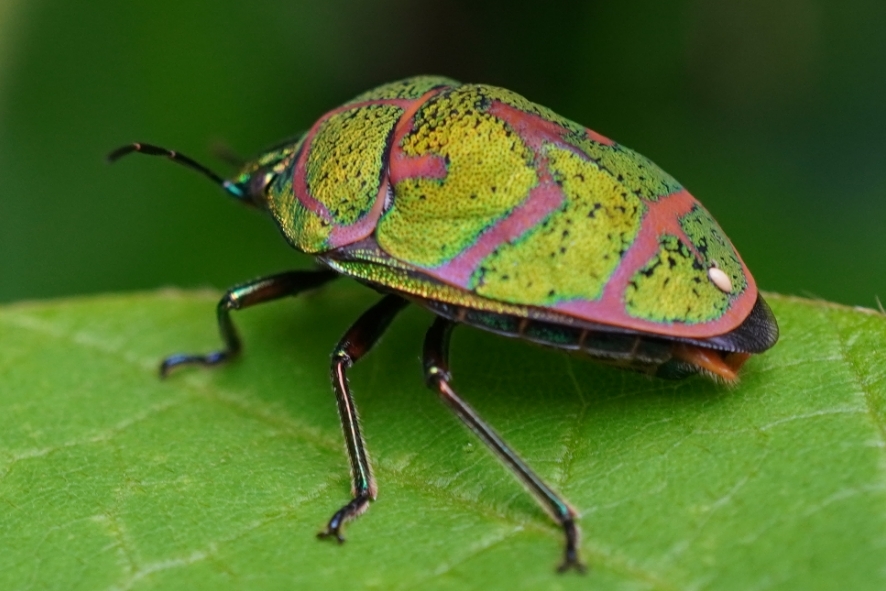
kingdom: Animalia
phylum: Arthropoda
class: Insecta
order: Hemiptera
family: Scutelleridae
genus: Poecilocoris
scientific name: Poecilocoris lewisi
